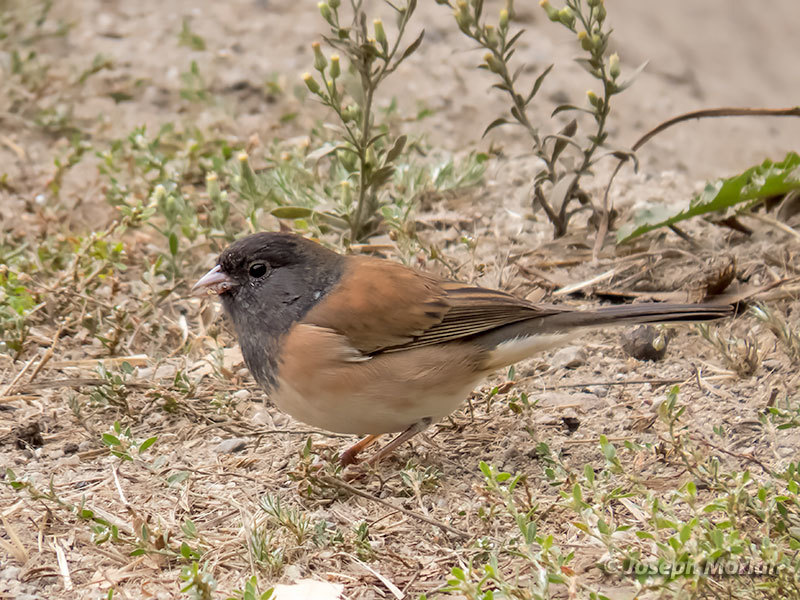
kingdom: Animalia
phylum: Chordata
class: Aves
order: Passeriformes
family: Passerellidae
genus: Junco
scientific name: Junco hyemalis
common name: Dark-eyed junco
